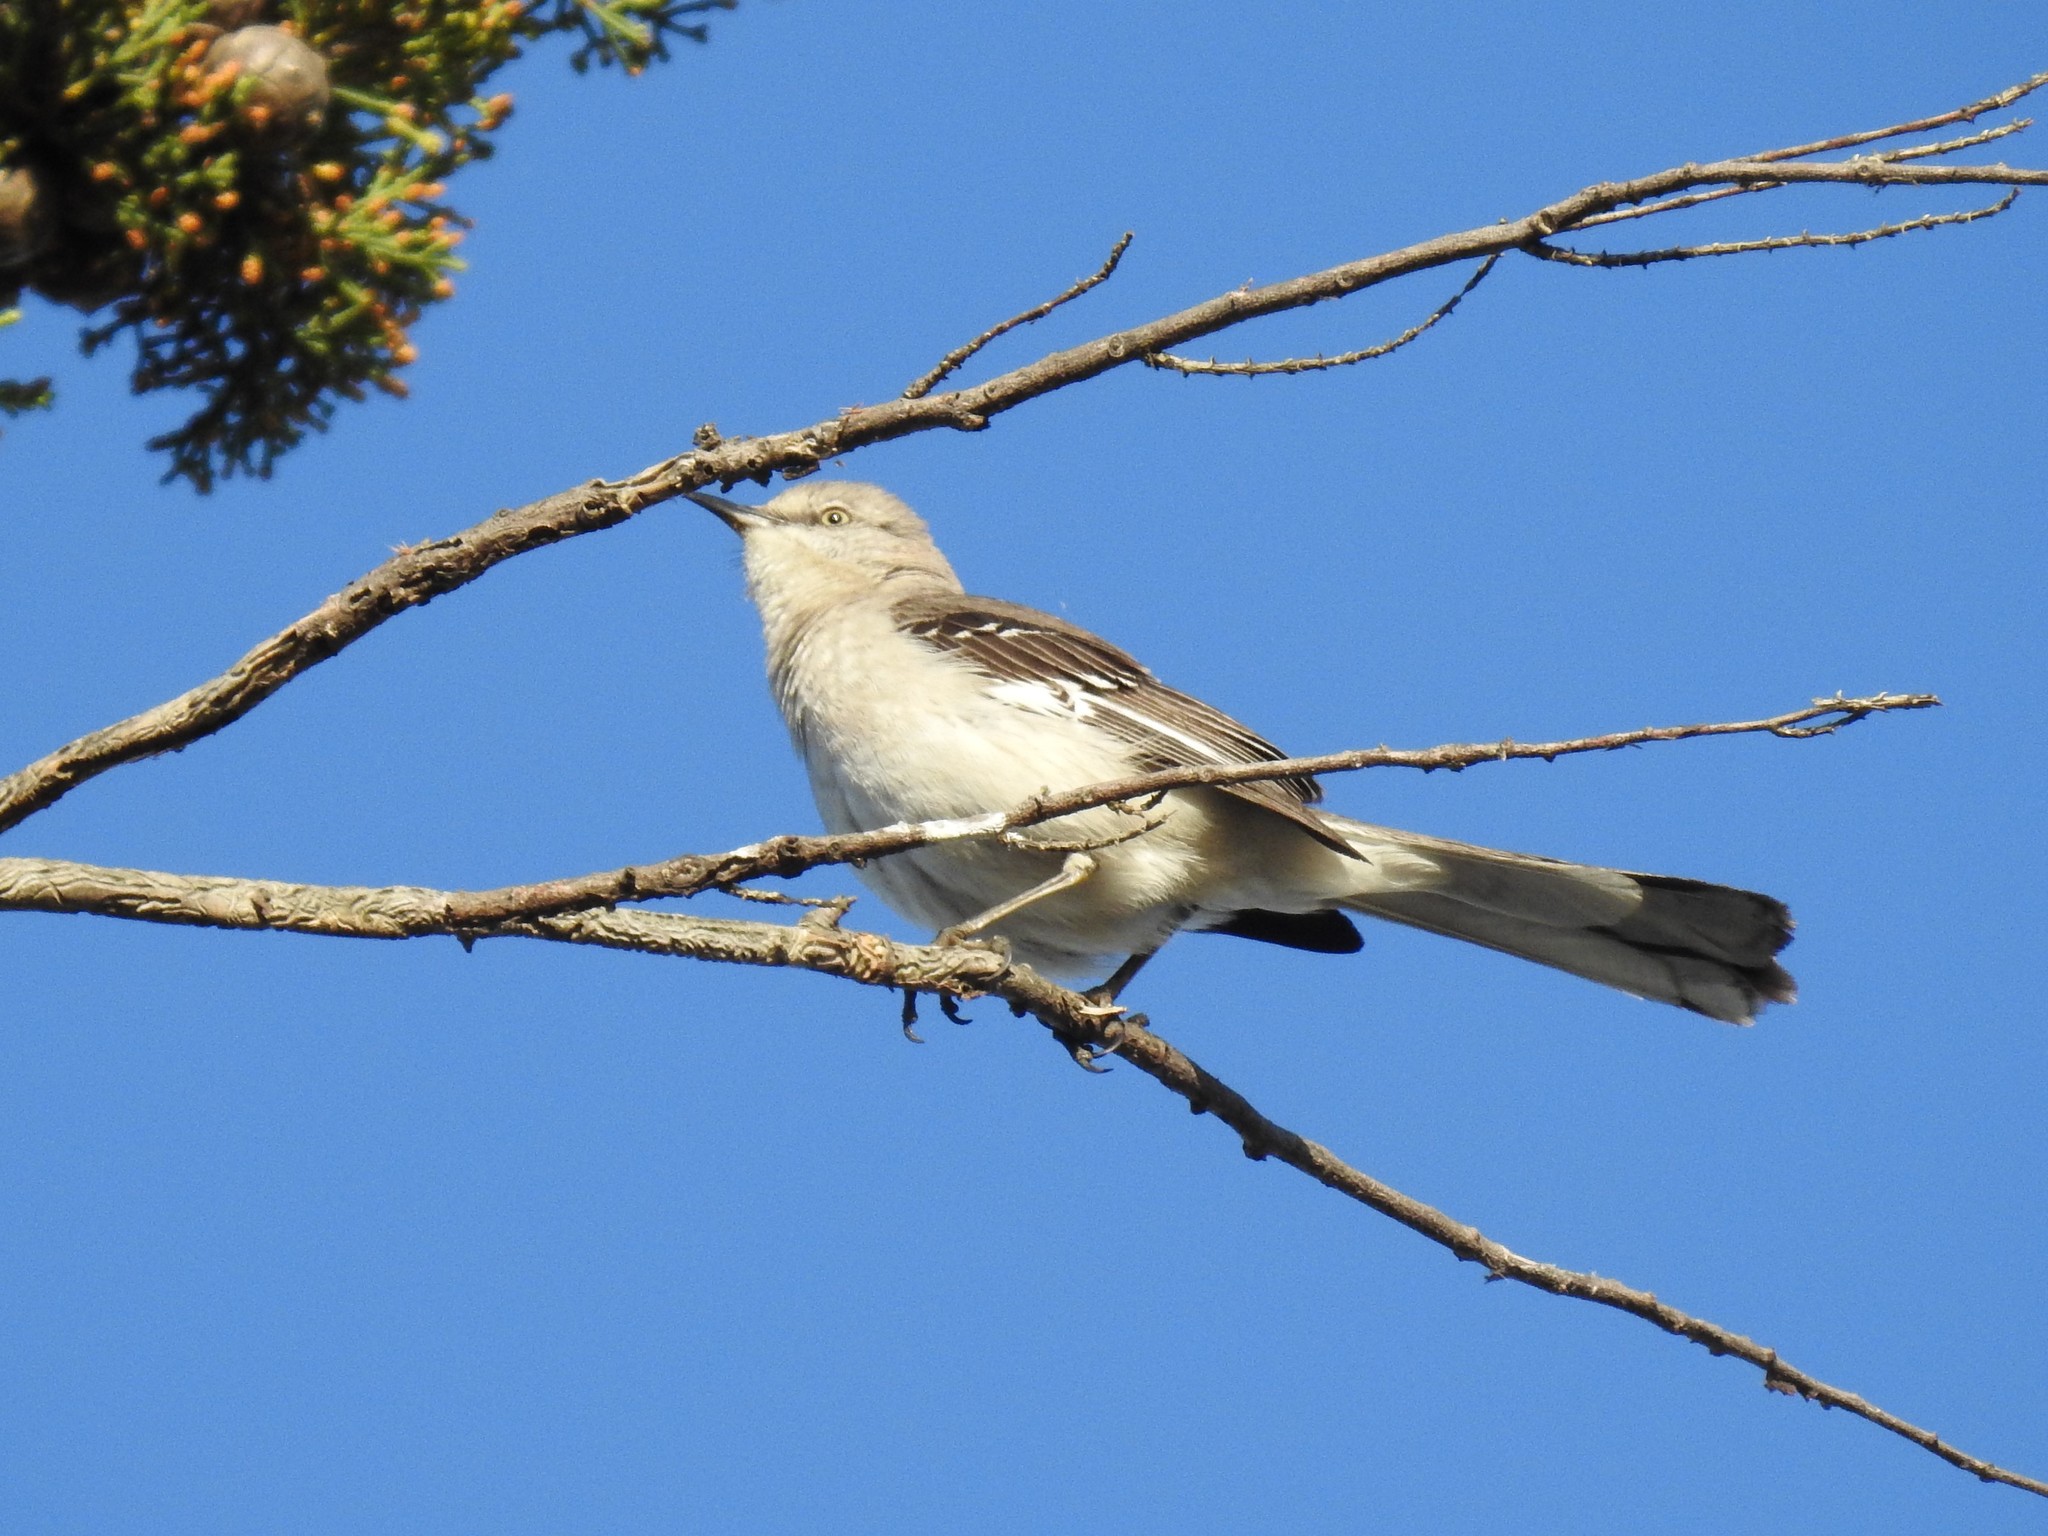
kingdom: Animalia
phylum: Chordata
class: Aves
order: Passeriformes
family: Mimidae
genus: Mimus
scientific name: Mimus polyglottos
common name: Northern mockingbird
